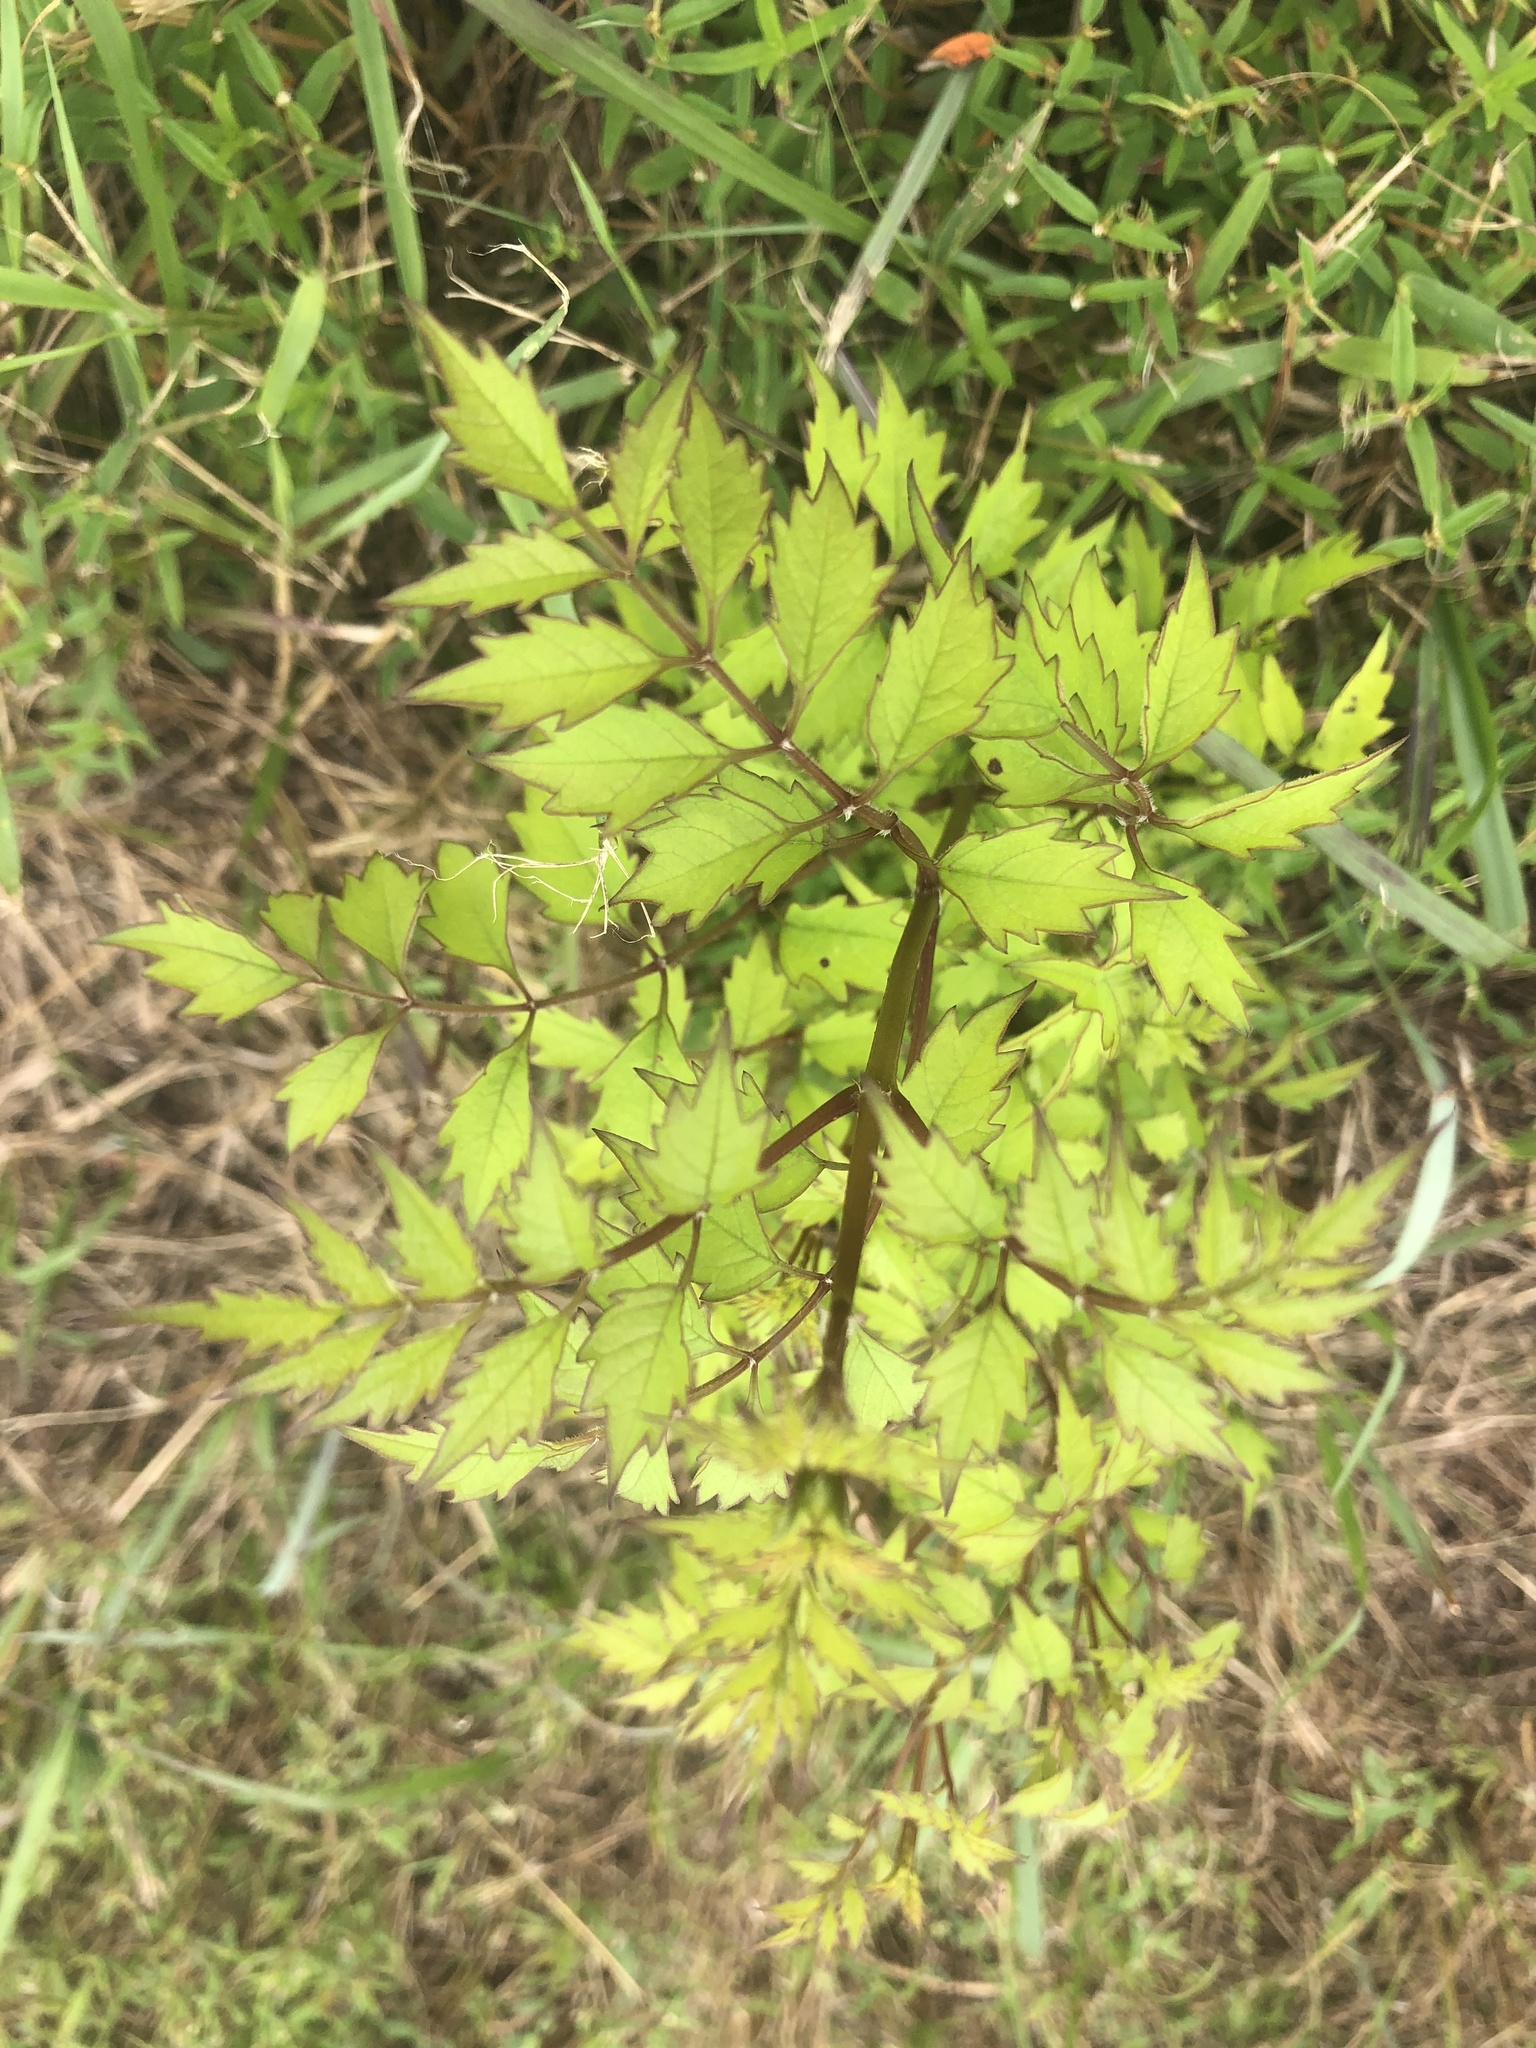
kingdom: Plantae
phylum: Tracheophyta
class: Magnoliopsida
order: Vitales
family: Vitaceae
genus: Nekemias
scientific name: Nekemias arborea
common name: Peppervine
